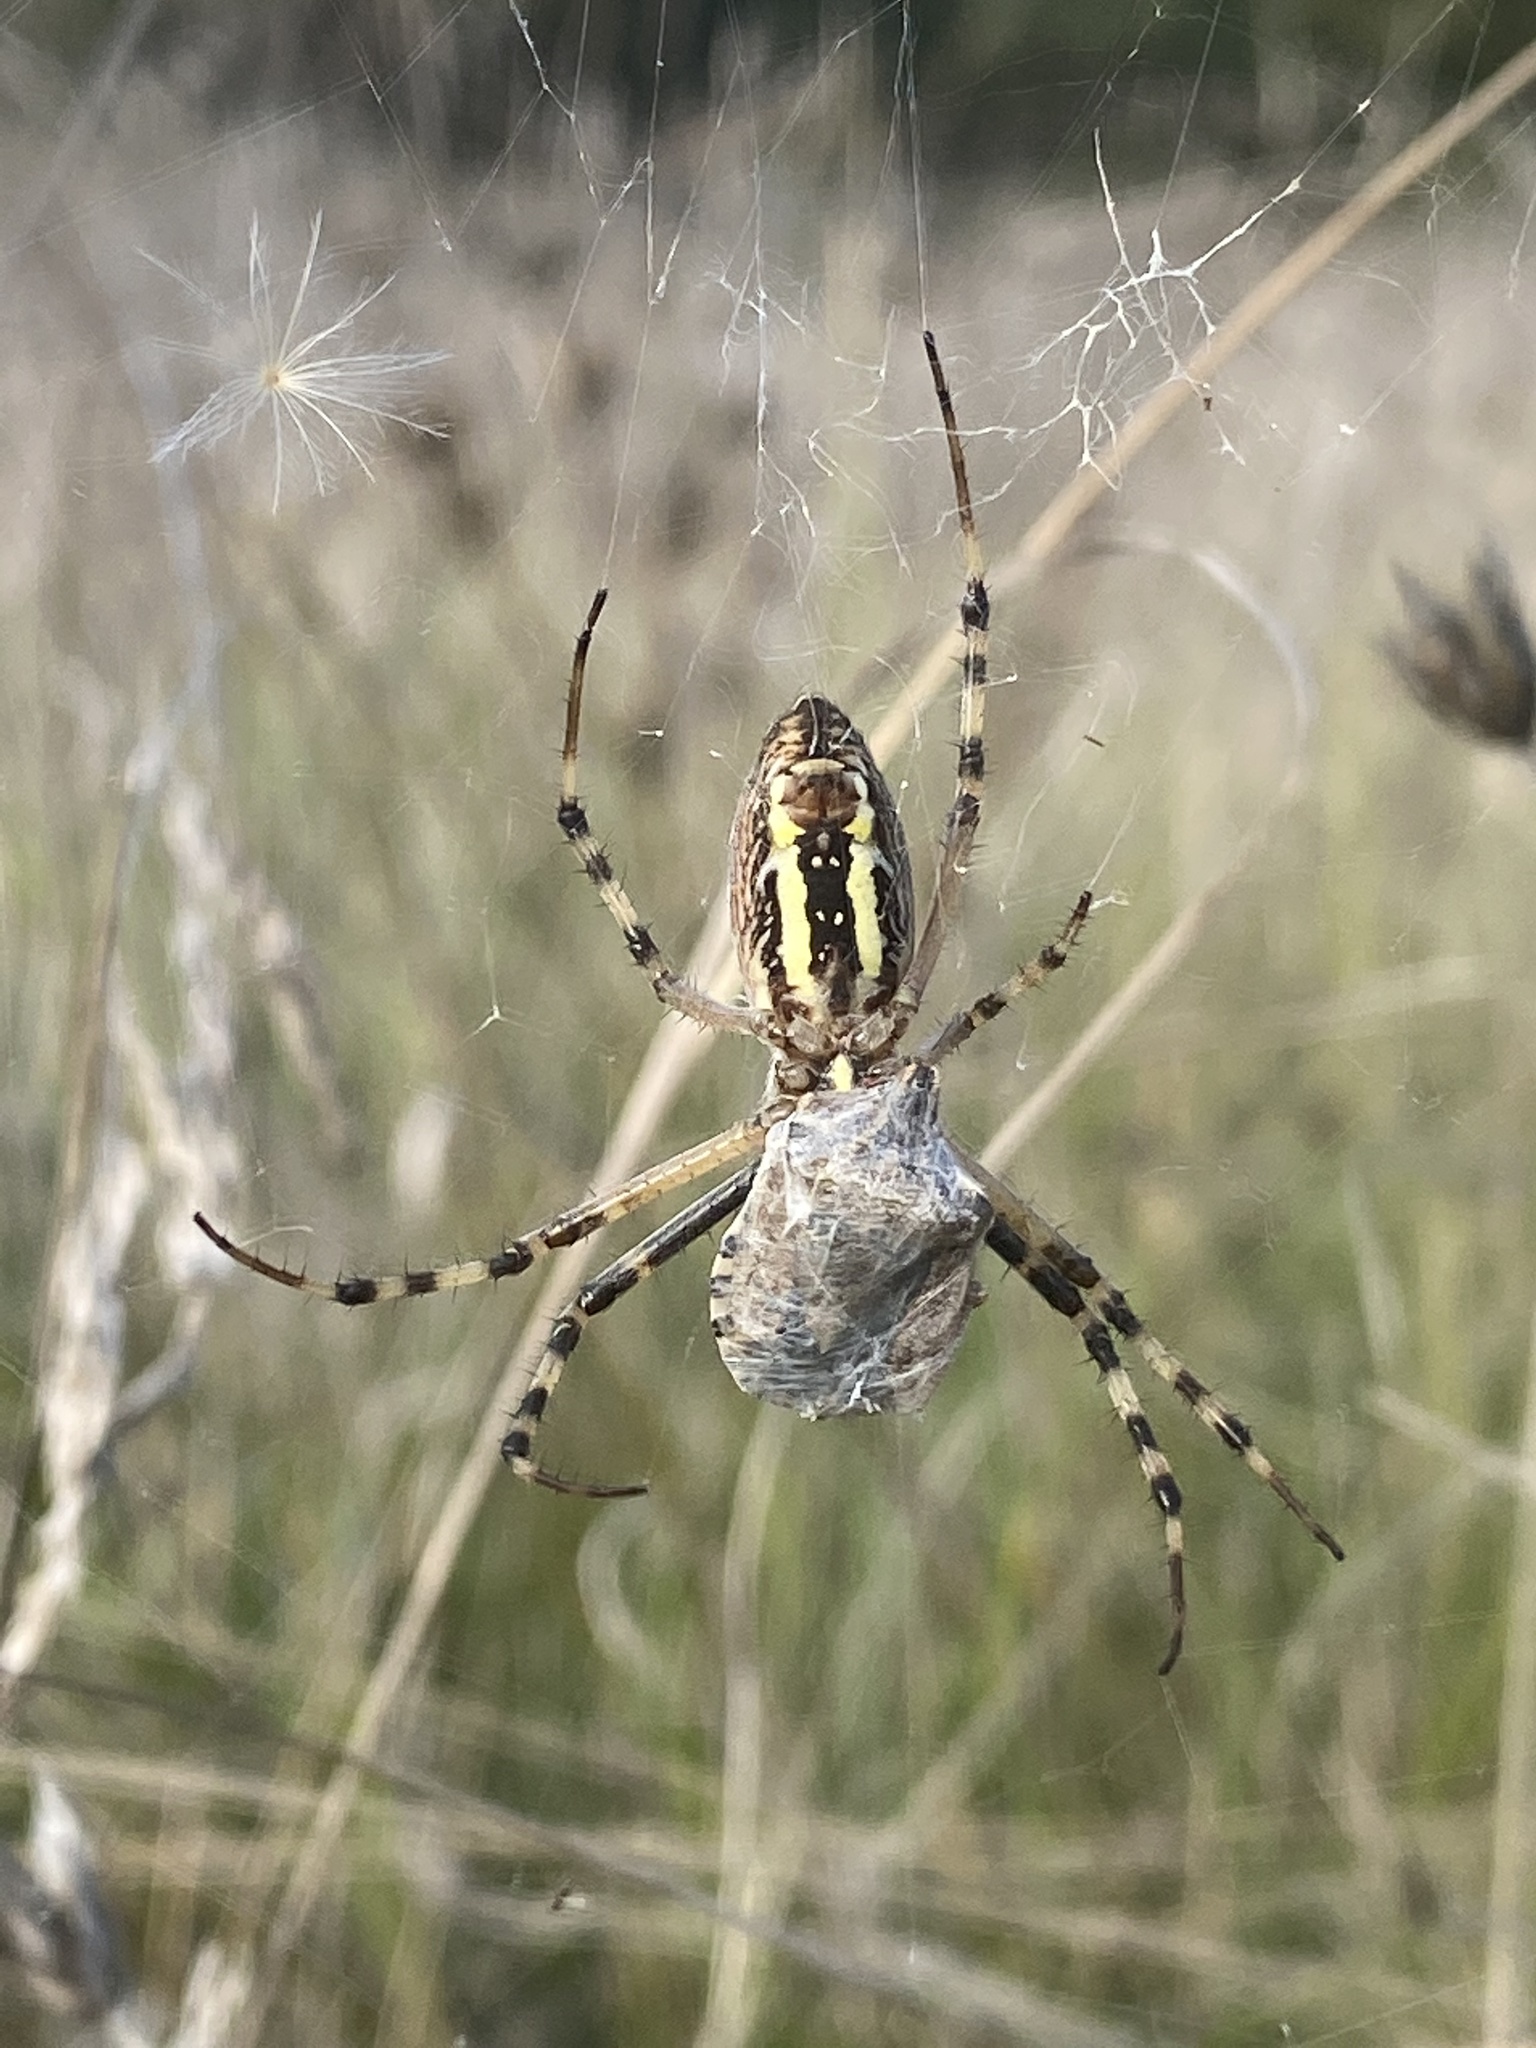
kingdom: Animalia
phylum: Arthropoda
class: Arachnida
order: Araneae
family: Araneidae
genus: Argiope
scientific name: Argiope bruennichi
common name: Wasp spider
